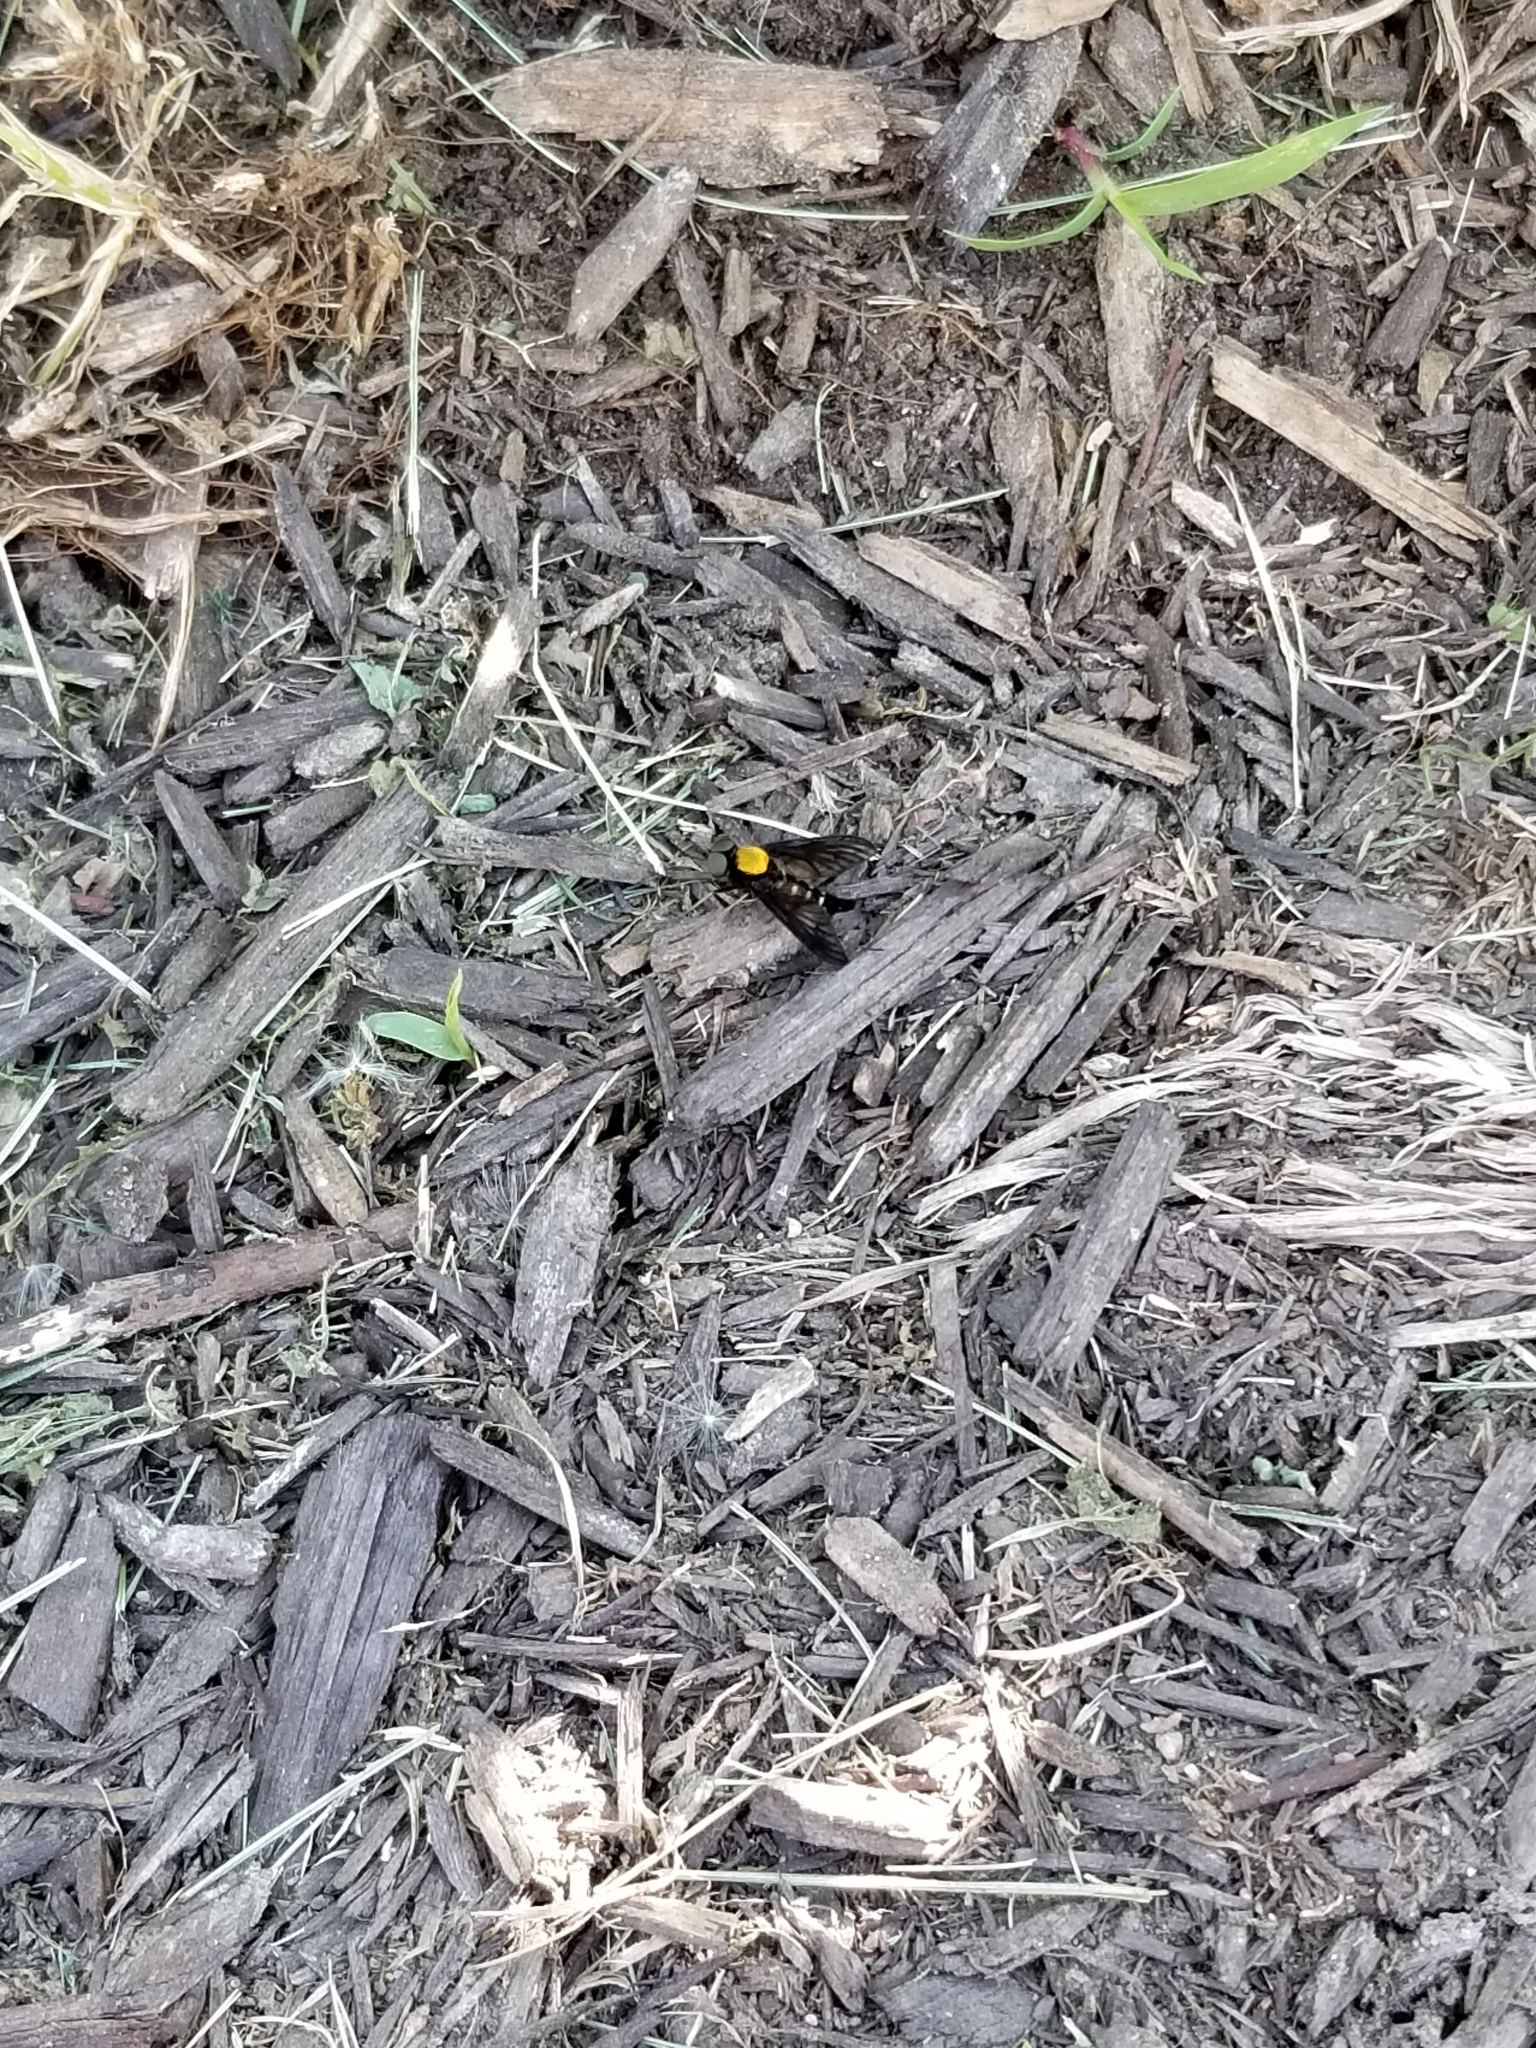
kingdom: Animalia
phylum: Arthropoda
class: Insecta
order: Diptera
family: Rhagionidae
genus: Chrysopilus
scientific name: Chrysopilus thoracicus
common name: Golden-backed snipe fly
